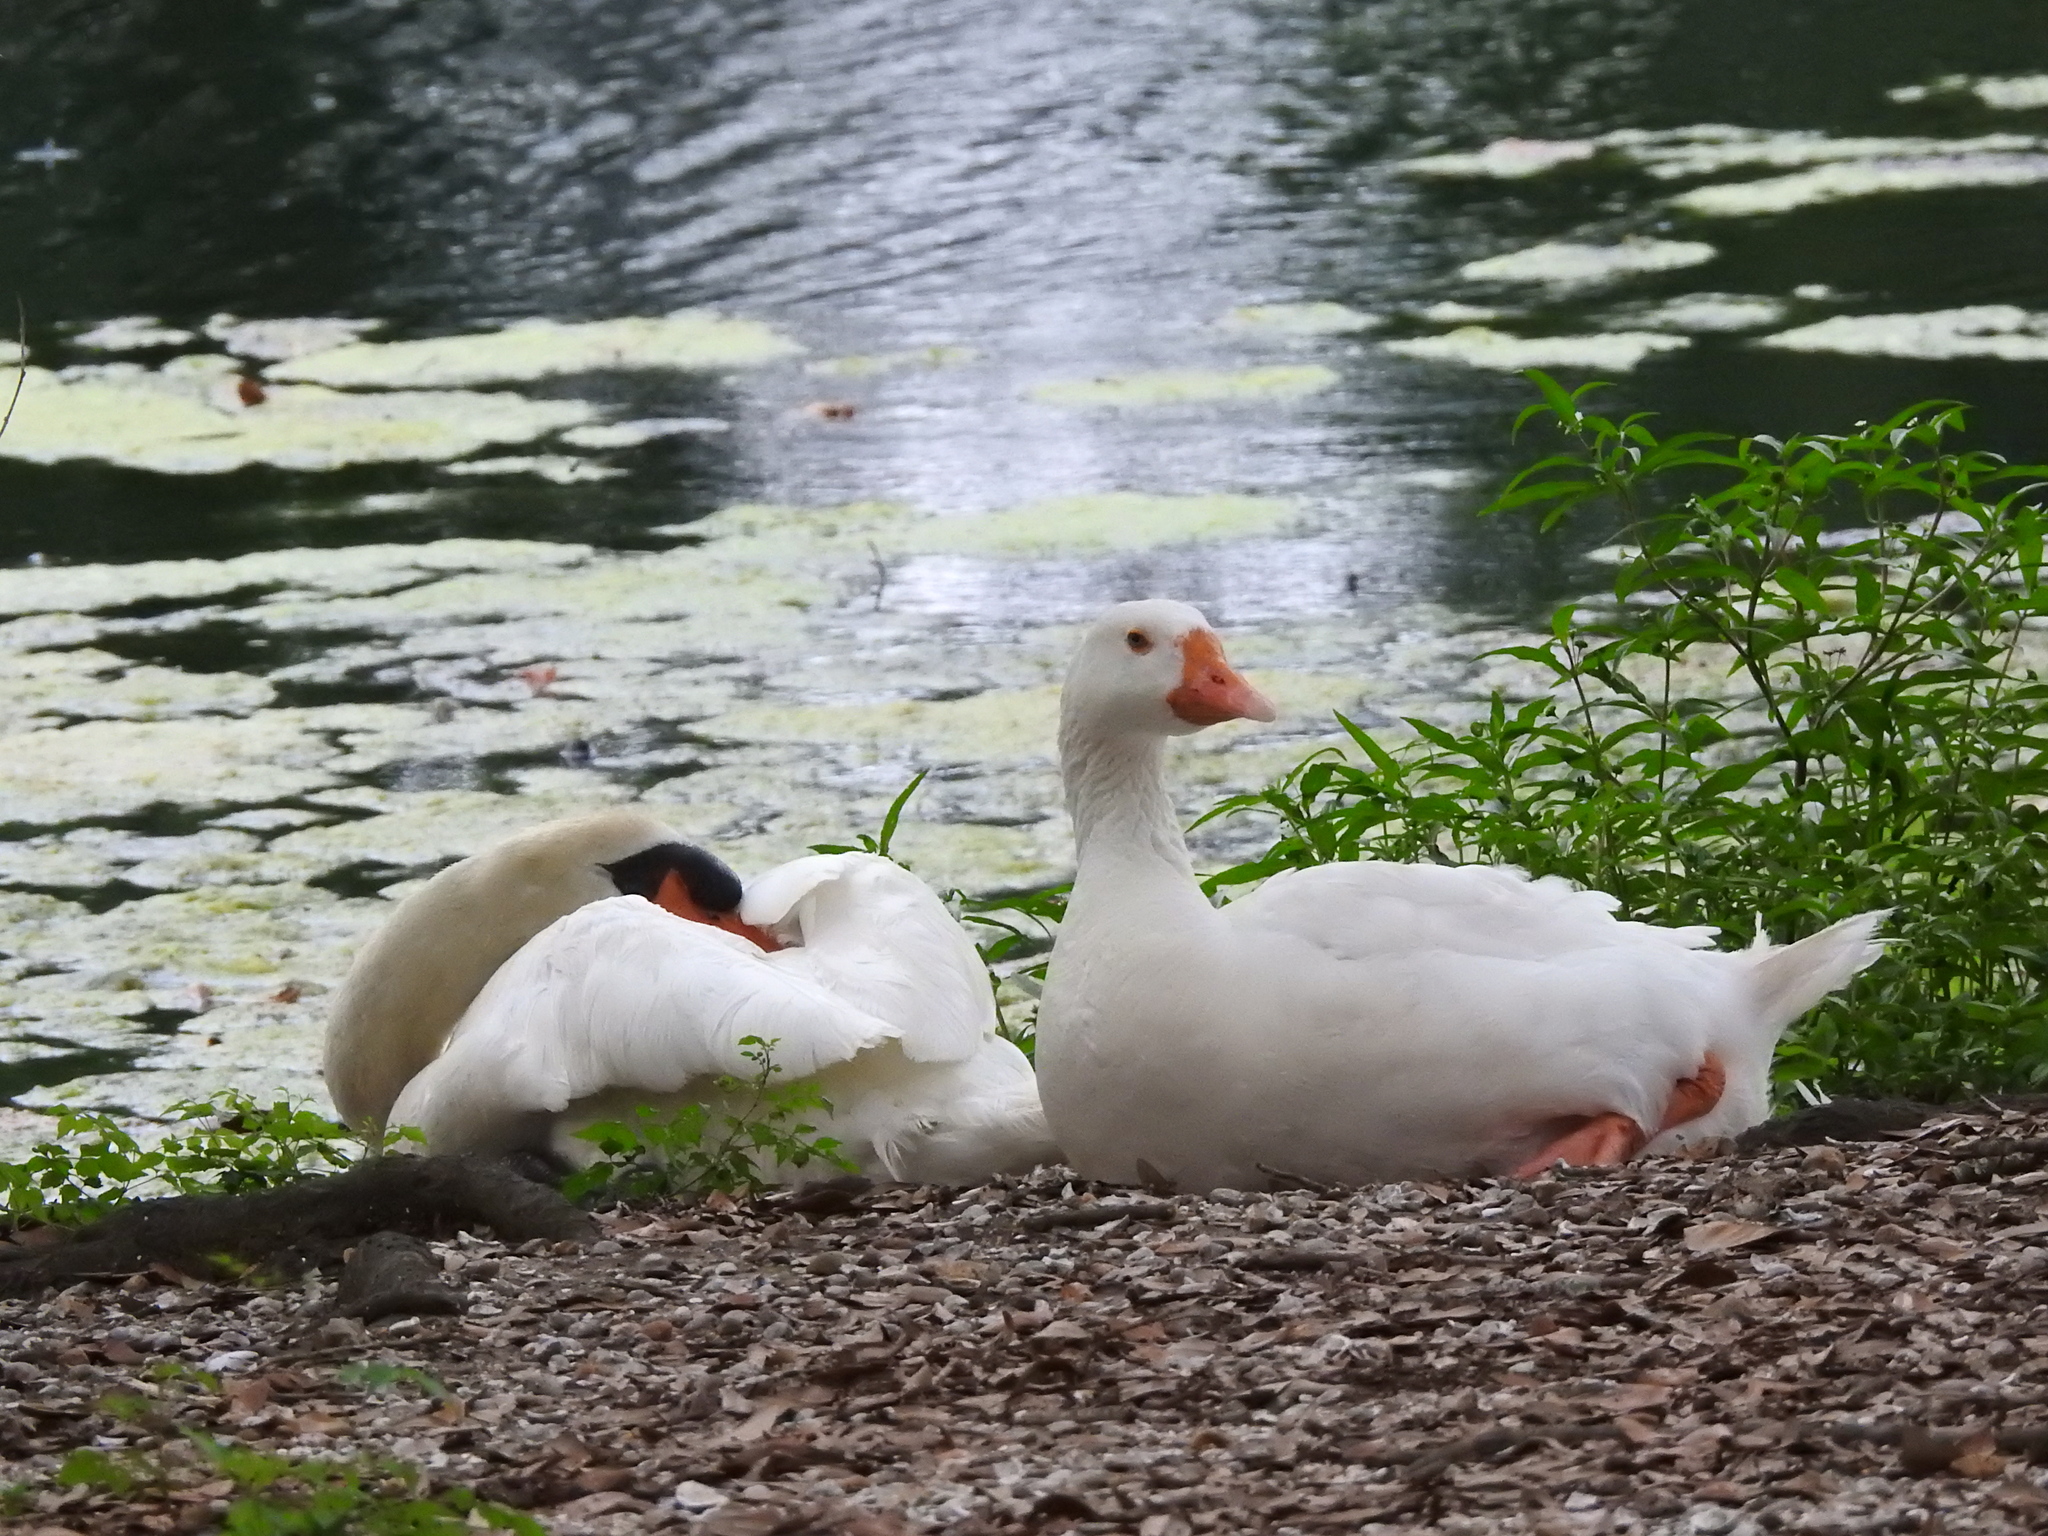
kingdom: Animalia
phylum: Chordata
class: Aves
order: Anseriformes
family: Anatidae
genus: Anser
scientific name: Anser anser
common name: Greylag goose
